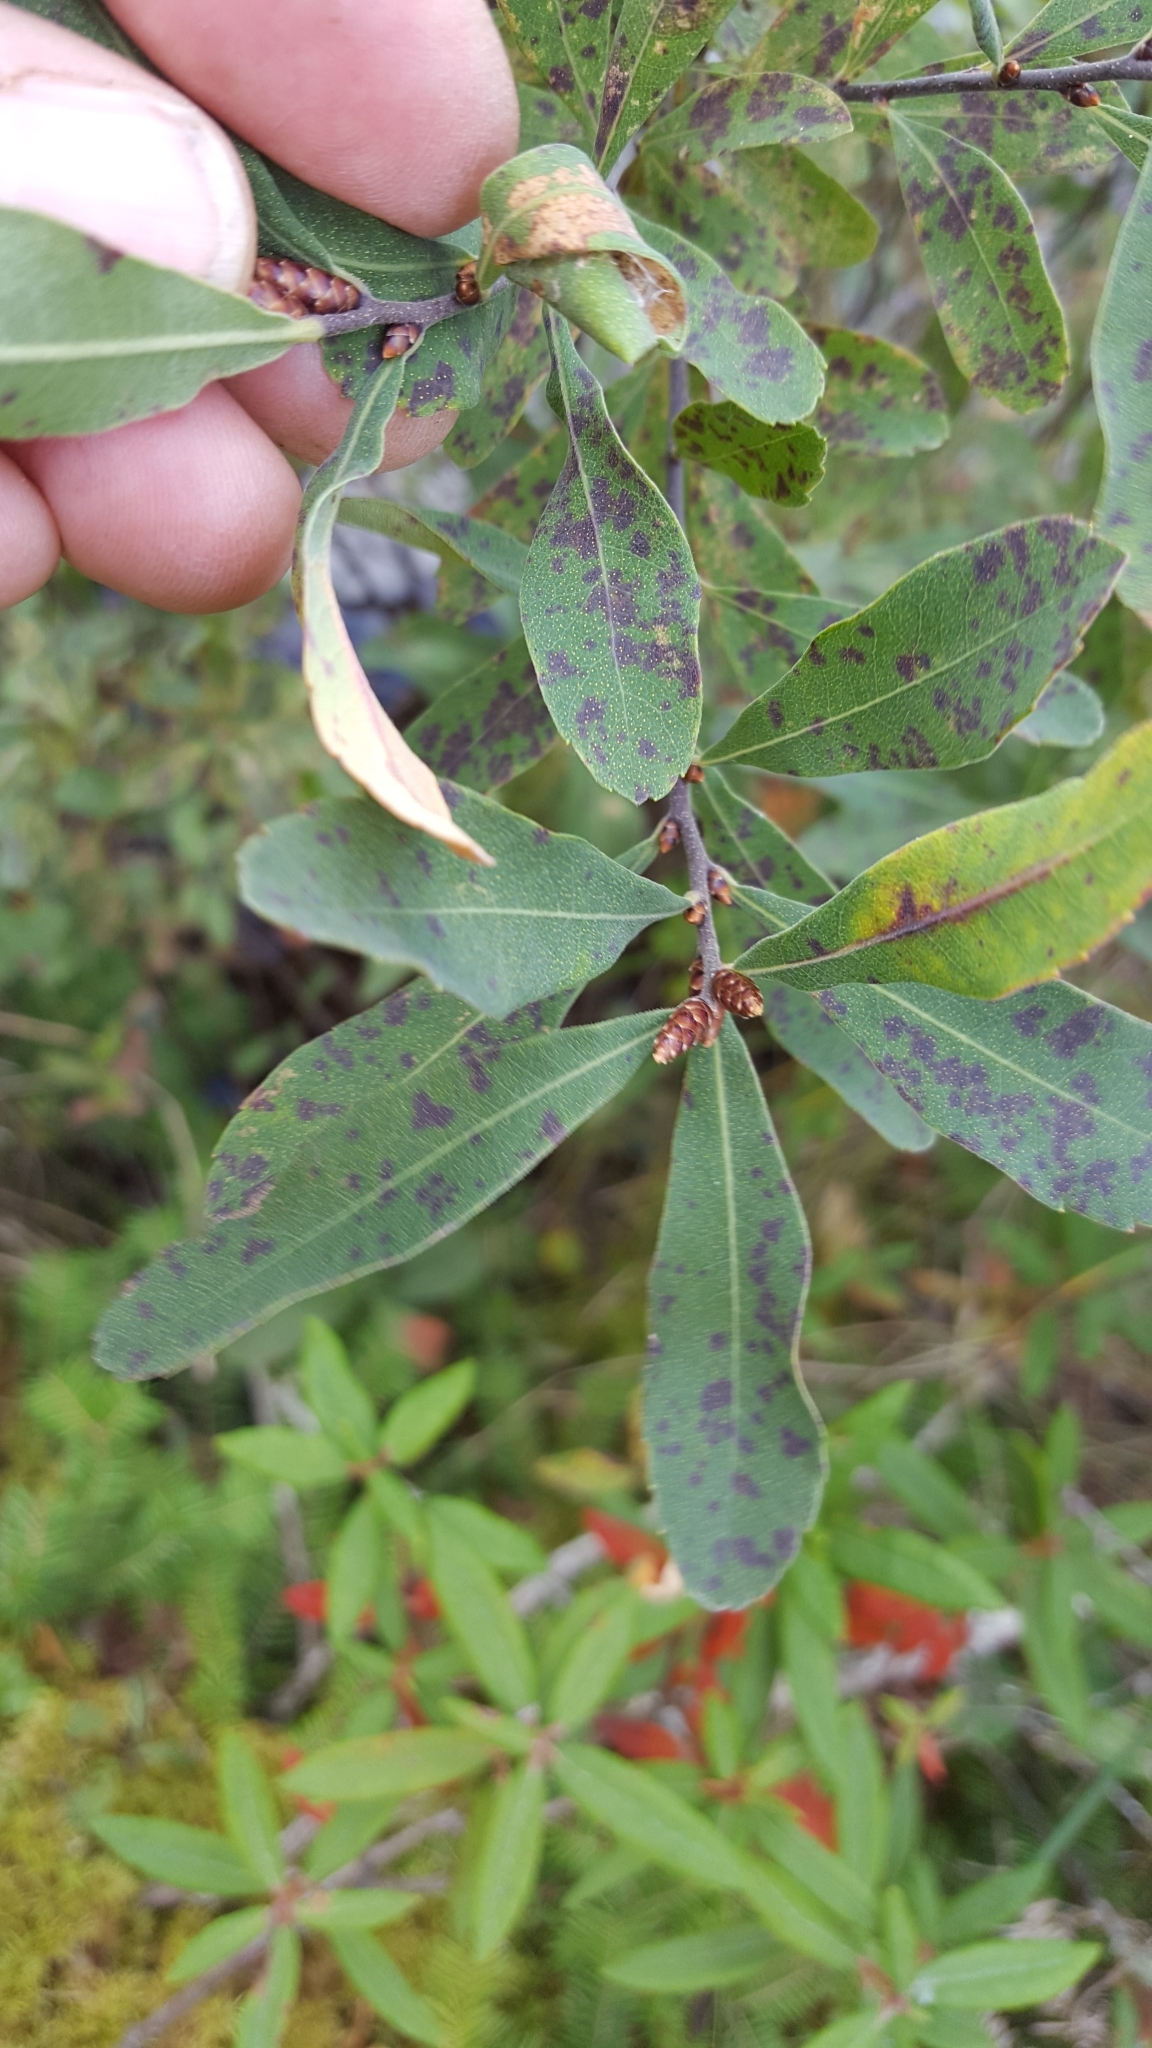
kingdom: Plantae
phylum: Tracheophyta
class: Magnoliopsida
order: Fagales
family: Myricaceae
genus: Myrica
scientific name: Myrica gale
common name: Sweet gale
